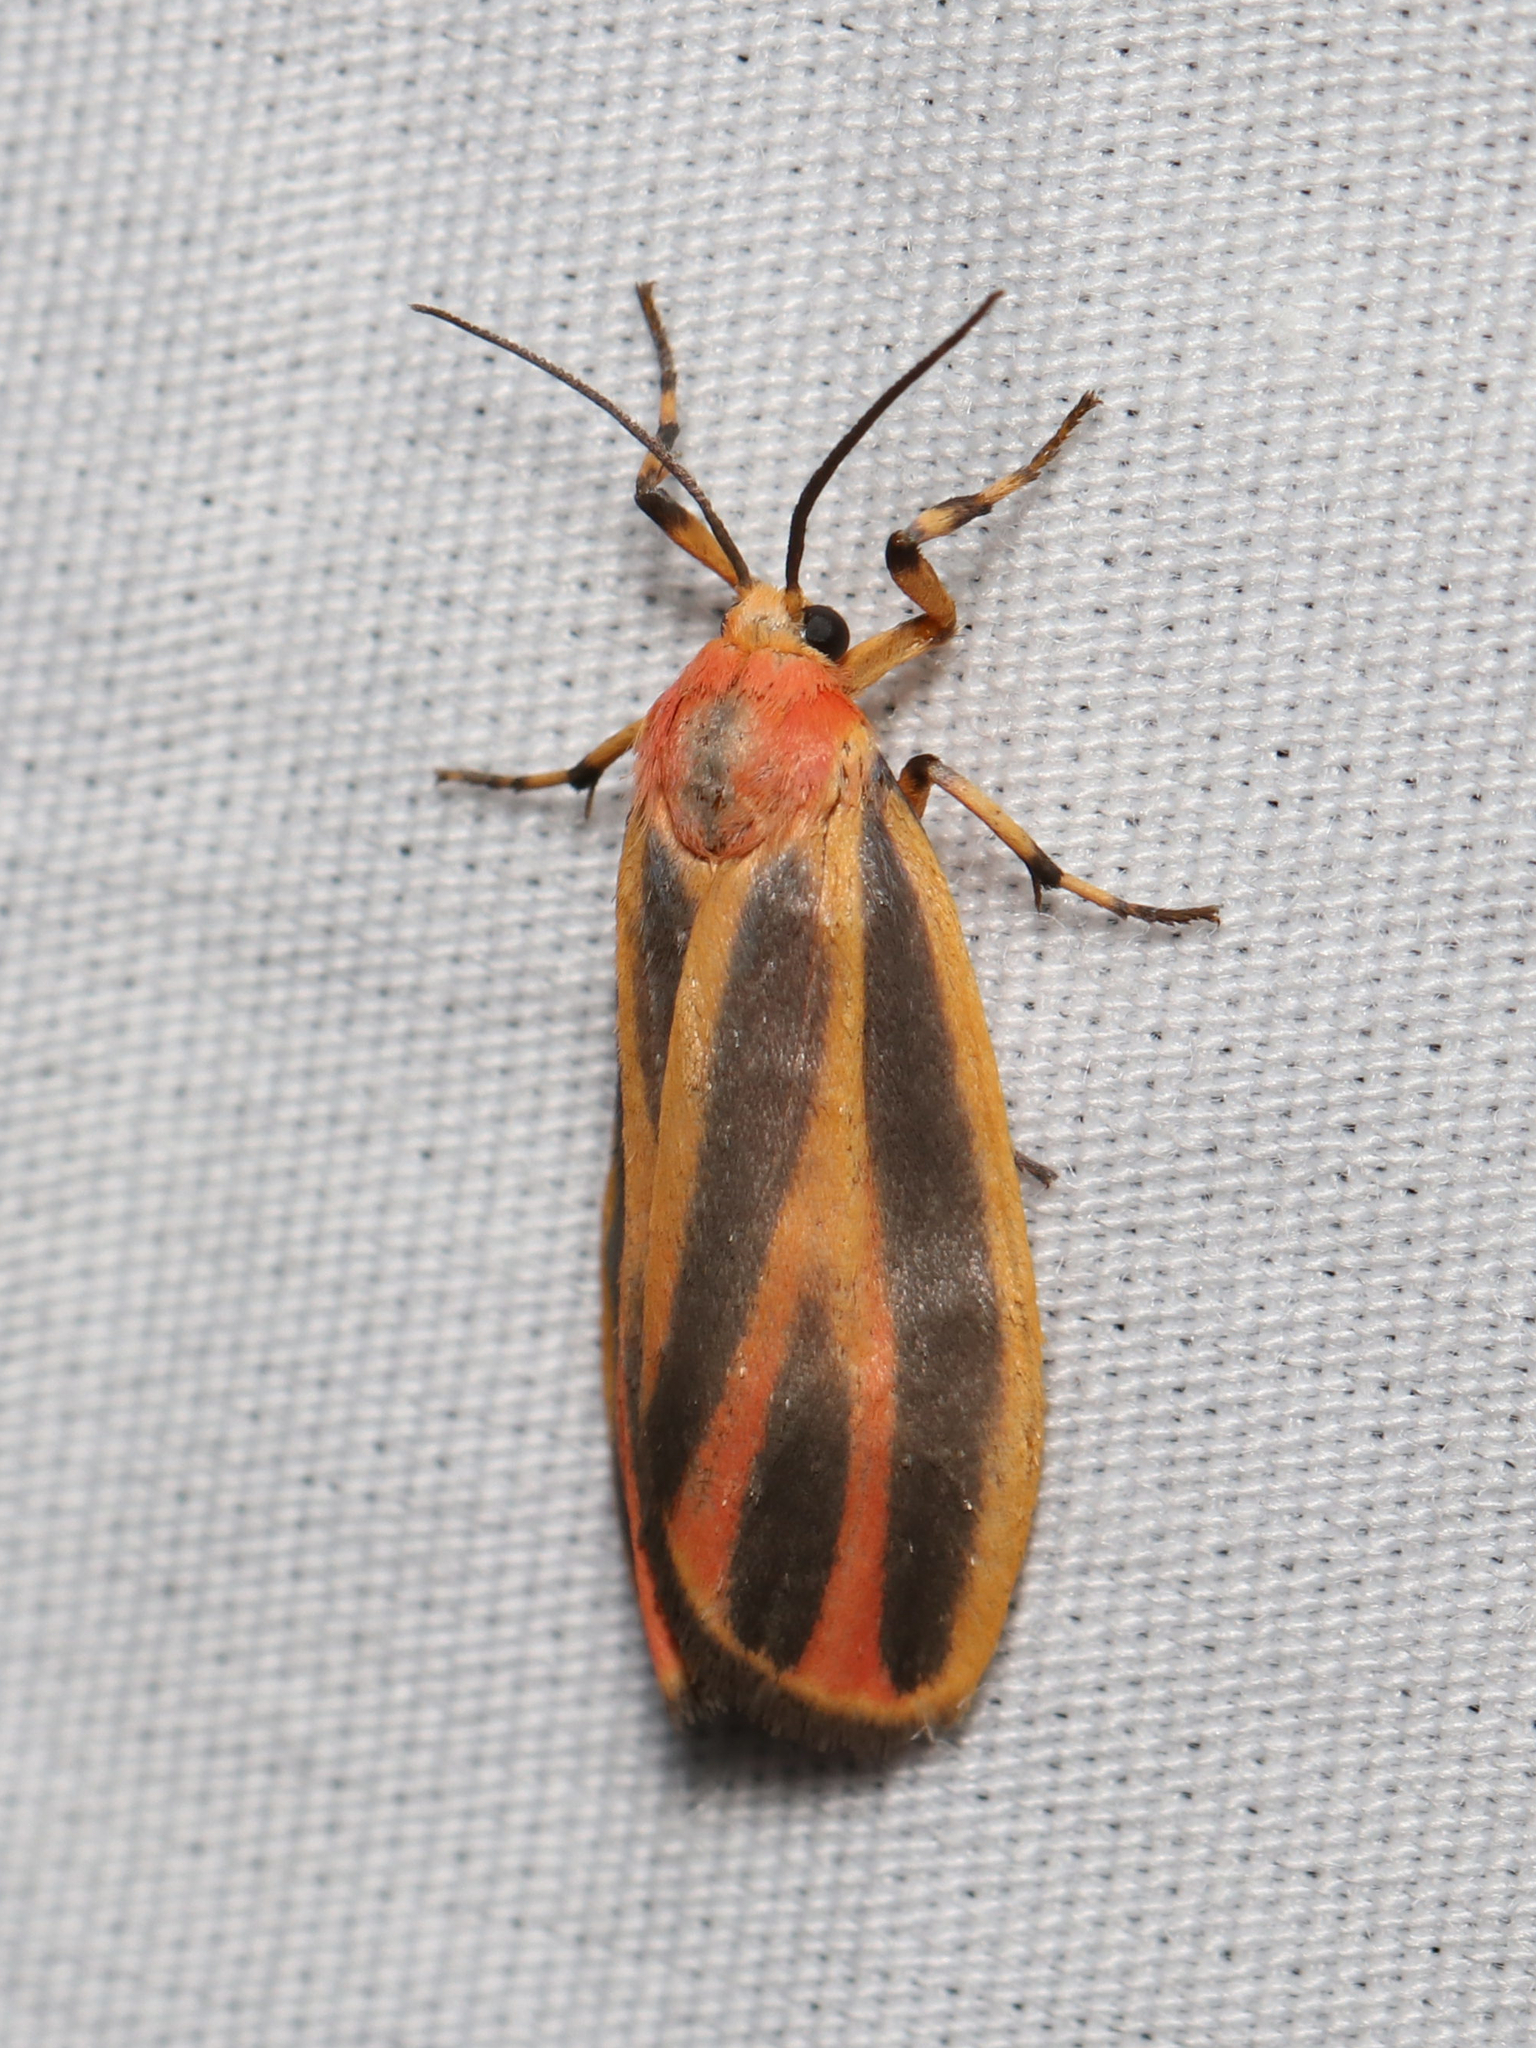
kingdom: Animalia
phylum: Arthropoda
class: Insecta
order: Lepidoptera
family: Erebidae
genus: Hypoprepia
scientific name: Hypoprepia fucosa
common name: Painted lichen moth
